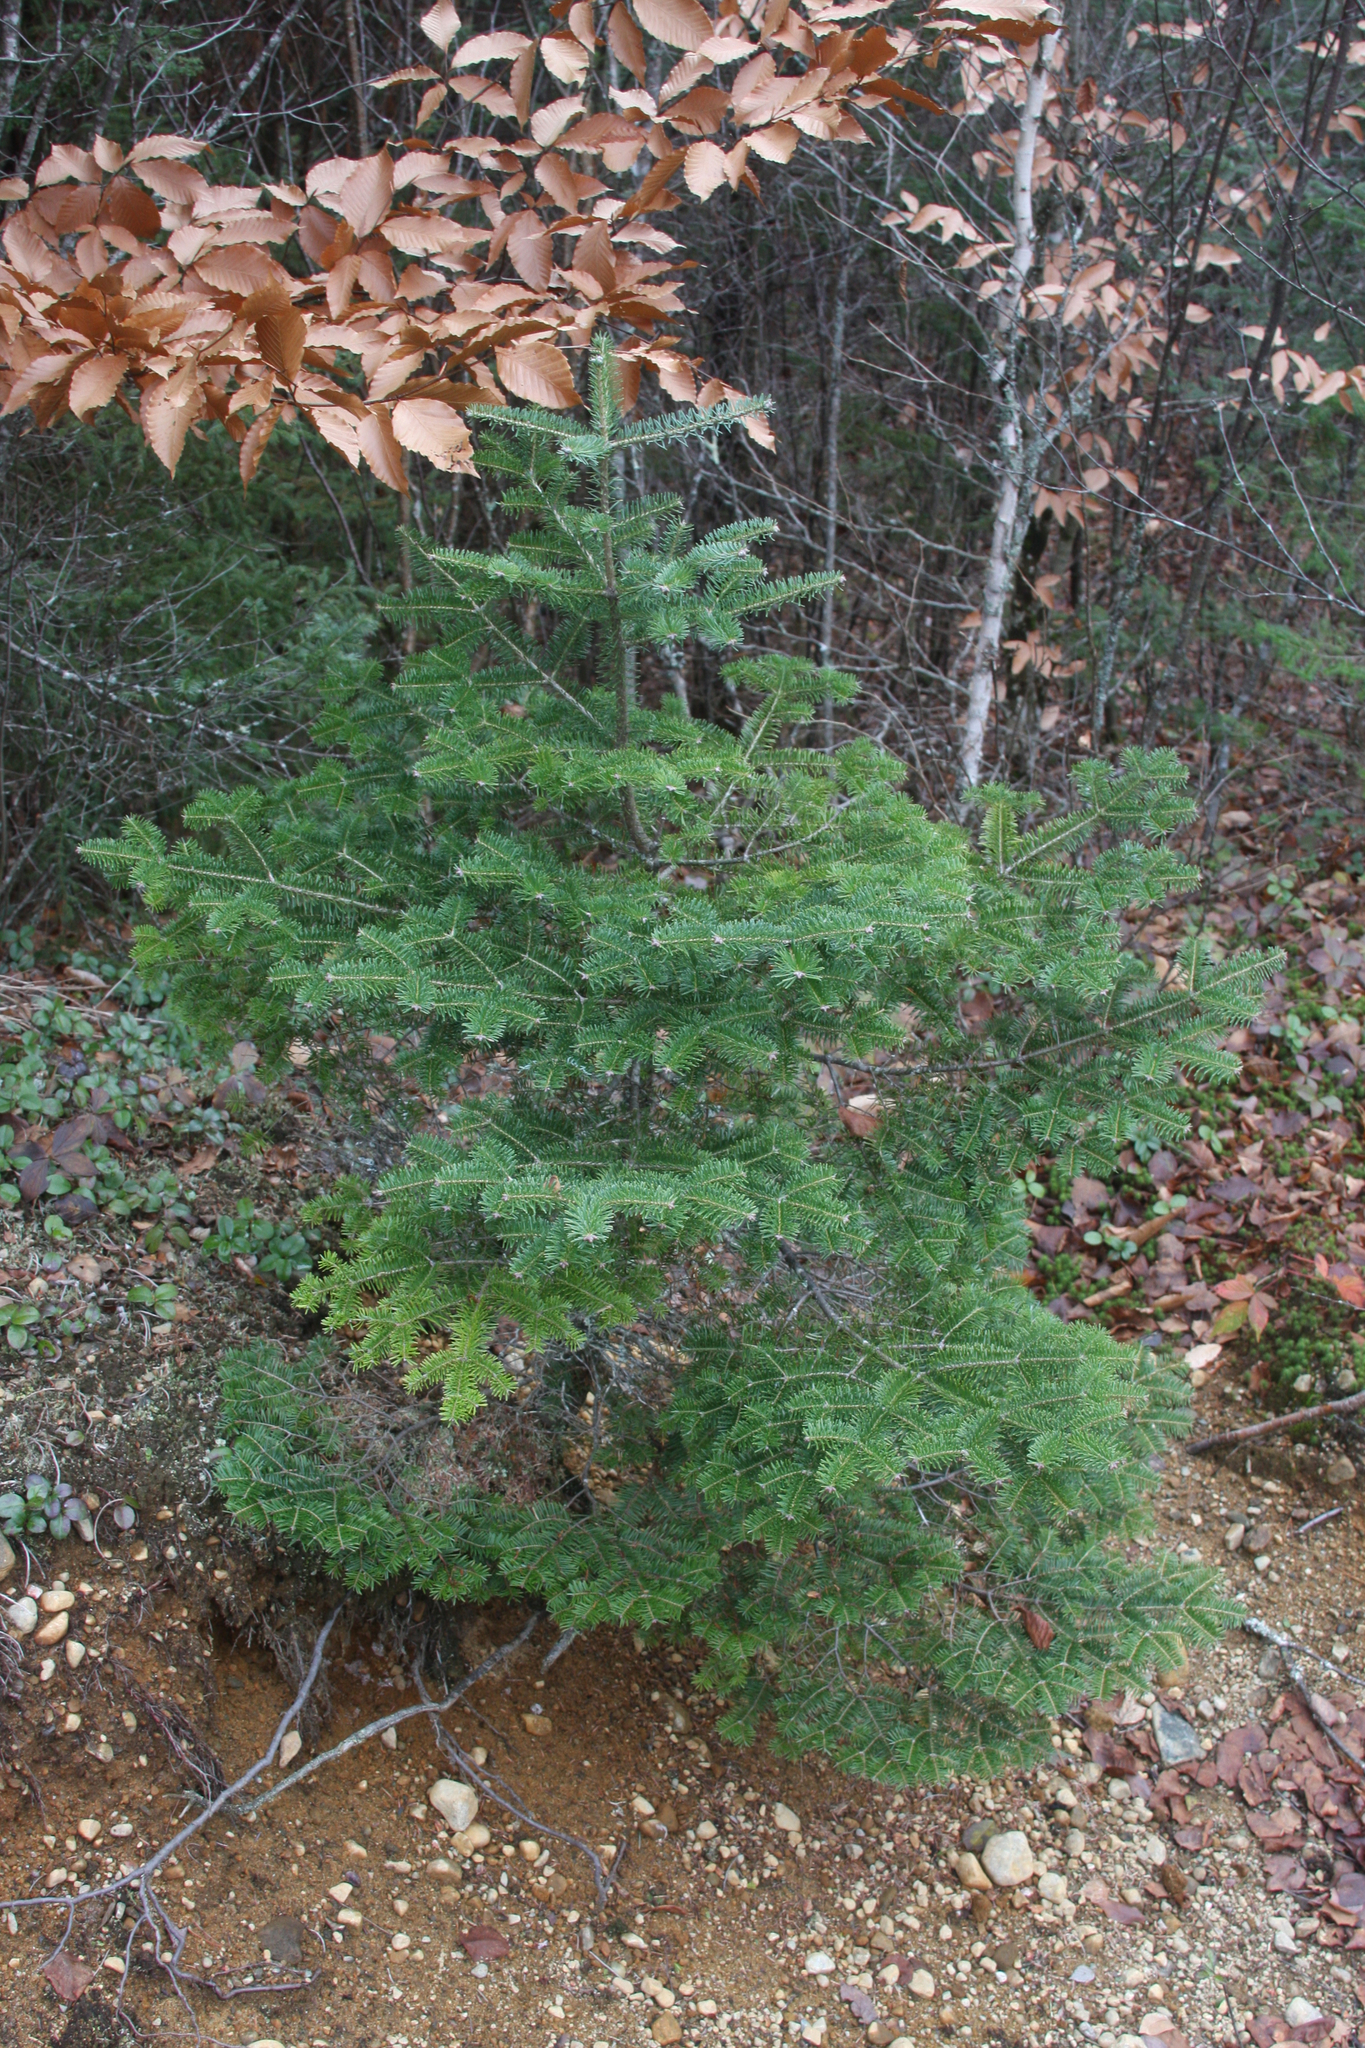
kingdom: Plantae
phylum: Tracheophyta
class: Pinopsida
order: Pinales
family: Pinaceae
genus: Abies
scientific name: Abies balsamea
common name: Balsam fir
